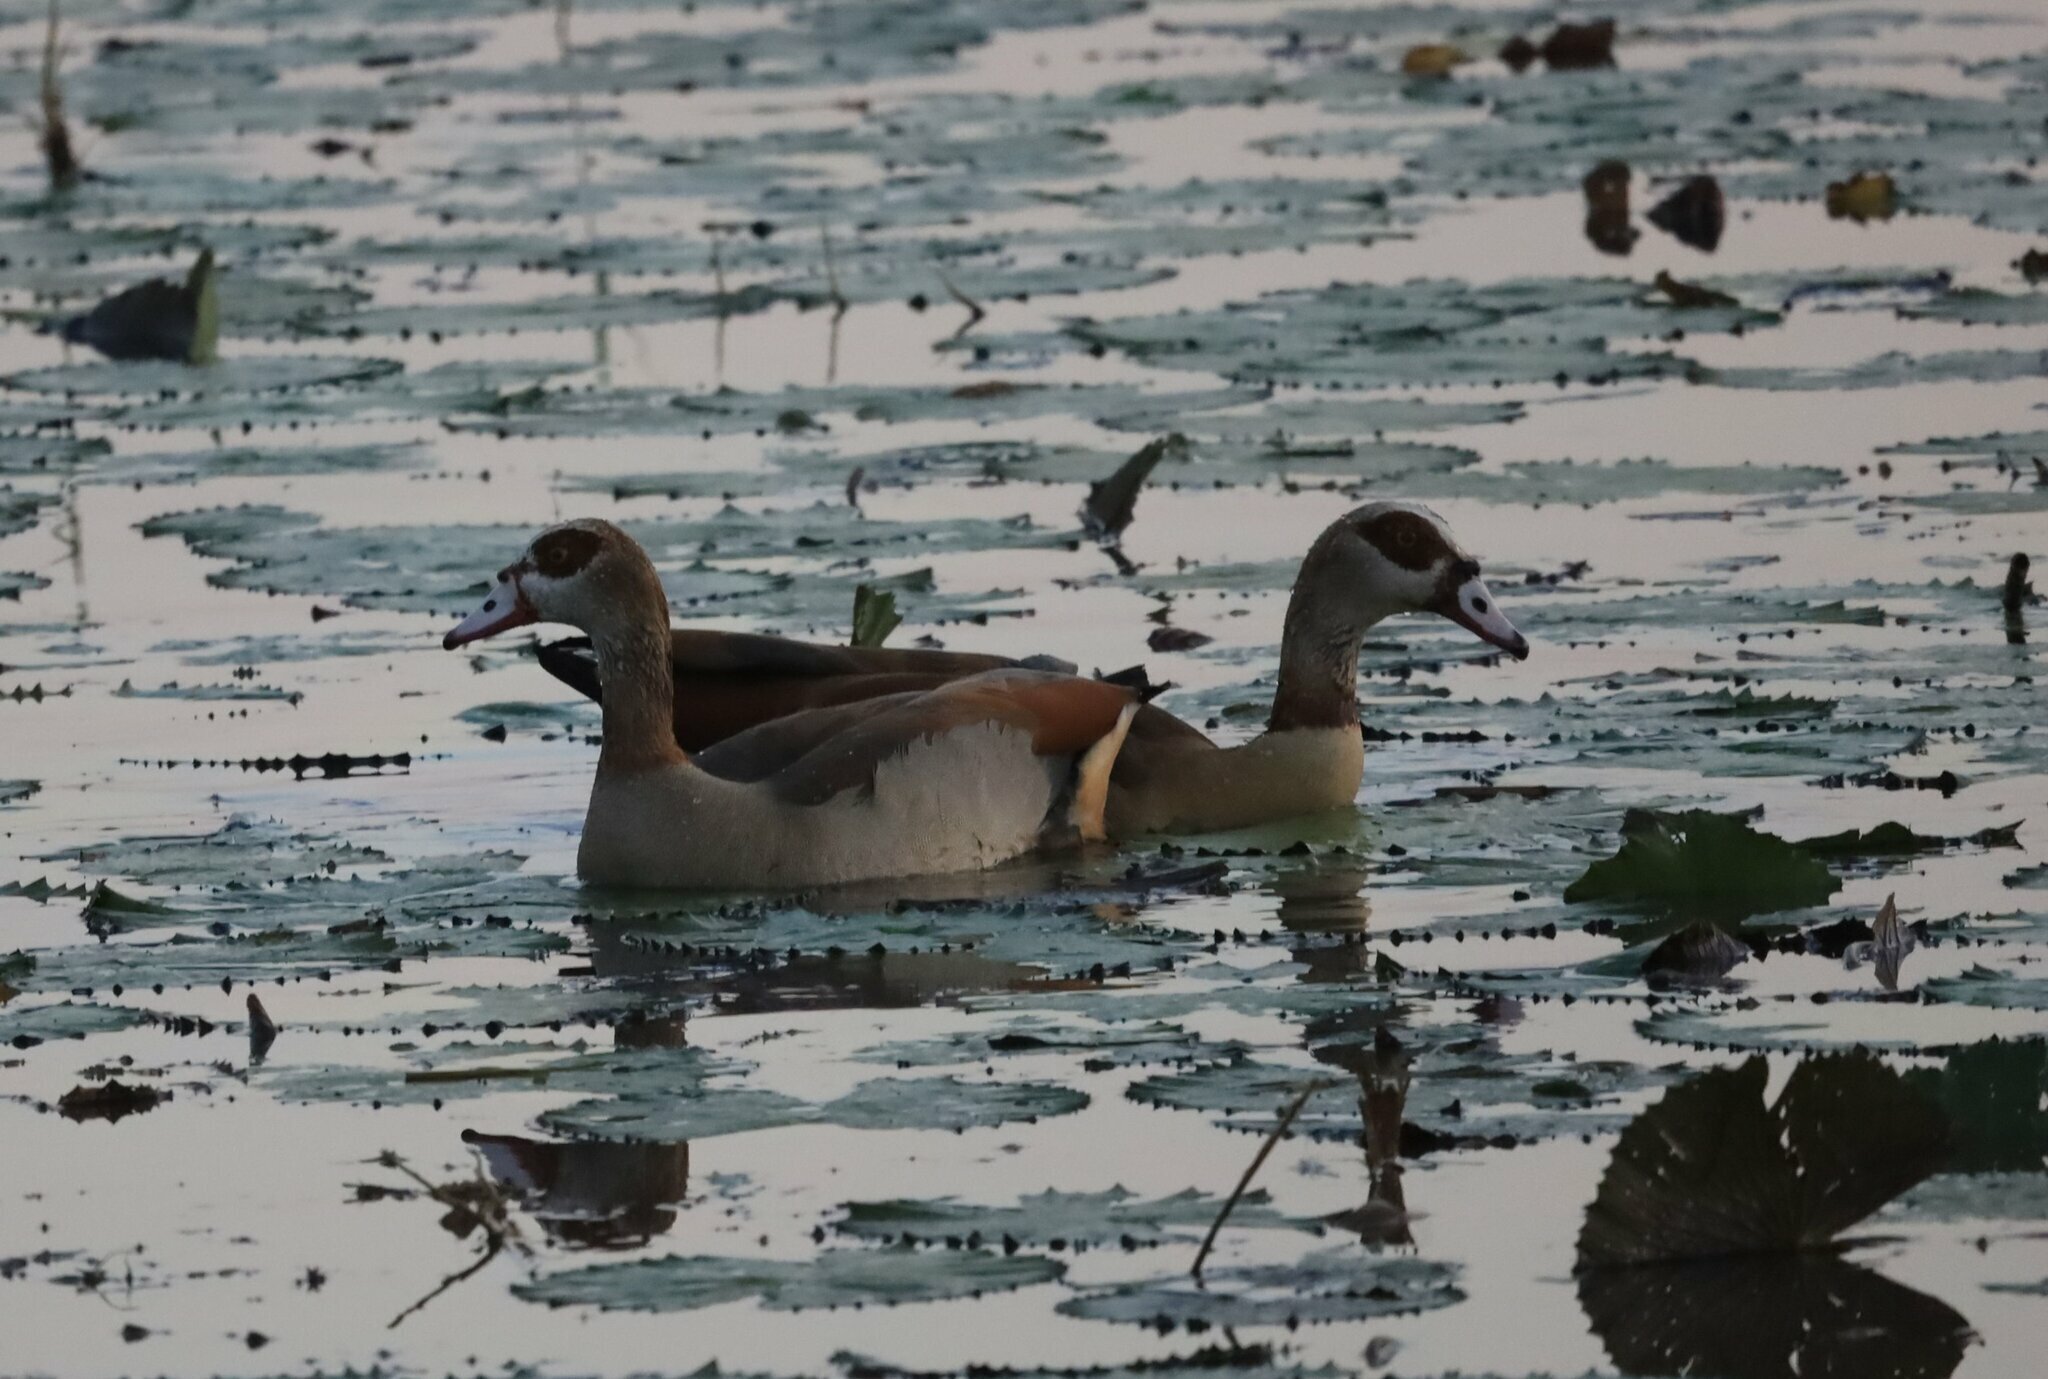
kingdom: Animalia
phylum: Chordata
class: Aves
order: Anseriformes
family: Anatidae
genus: Alopochen
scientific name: Alopochen aegyptiaca
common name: Egyptian goose
